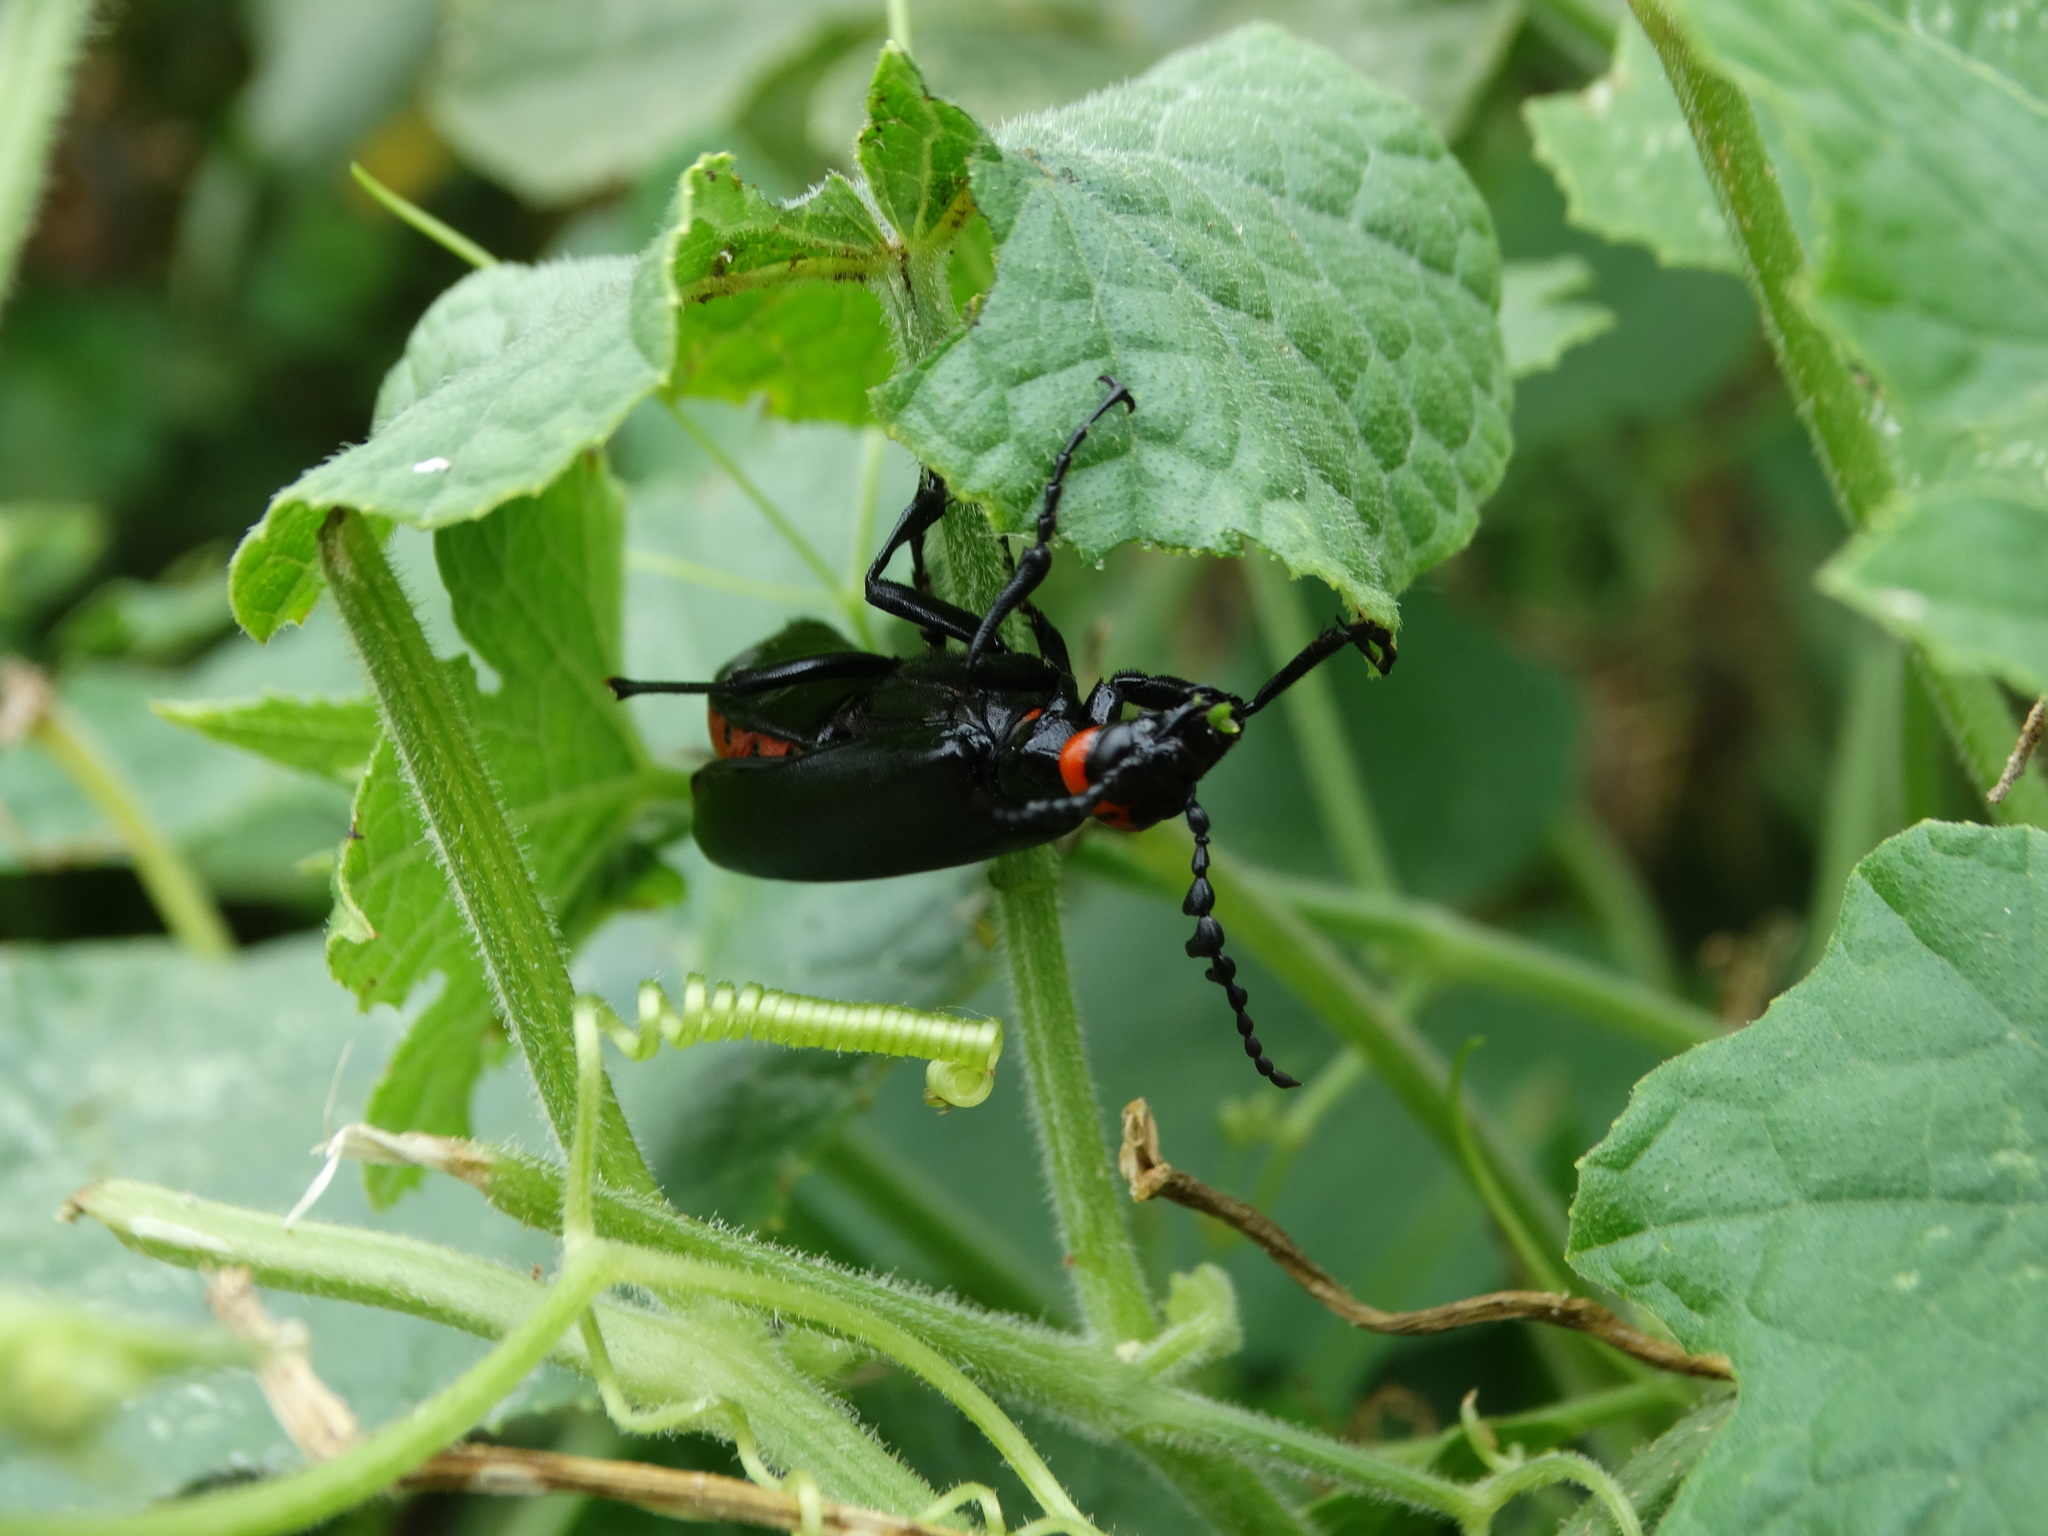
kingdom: Animalia
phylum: Arthropoda
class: Insecta
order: Coleoptera
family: Meloidae
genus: Lytta
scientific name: Lytta eucera
